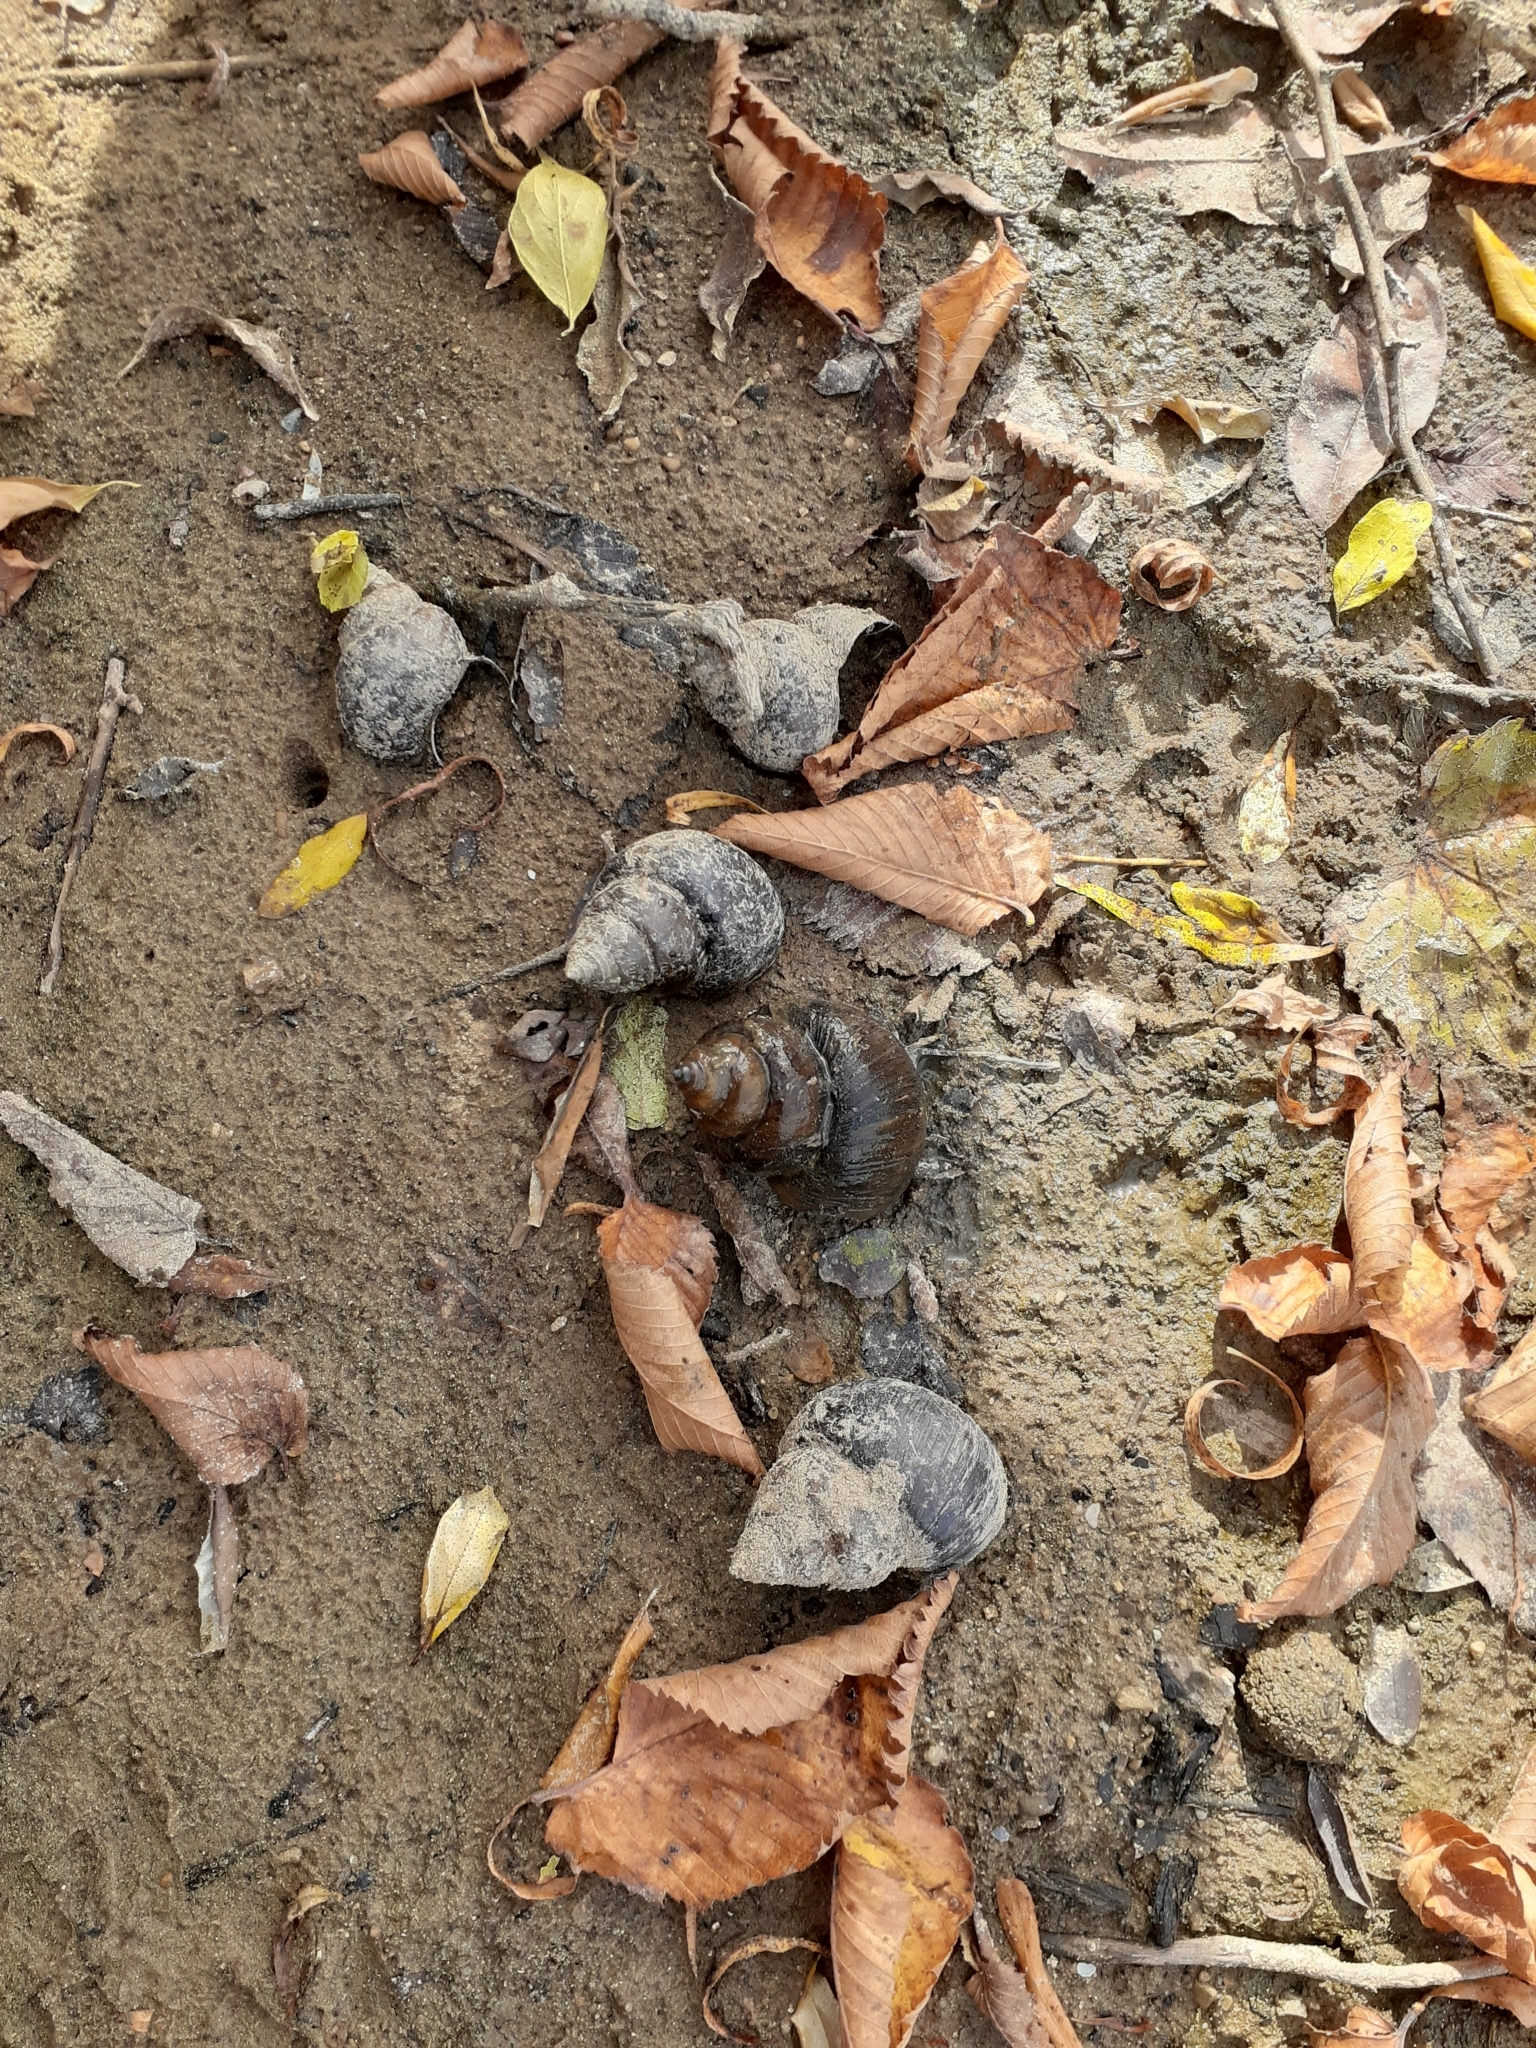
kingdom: Animalia
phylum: Mollusca
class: Gastropoda
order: Architaenioglossa
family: Viviparidae
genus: Cipangopaludina
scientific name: Cipangopaludina chinensis
